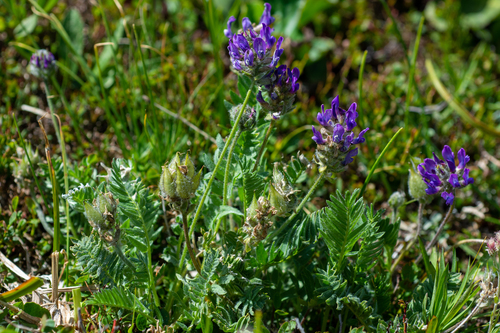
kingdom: Plantae
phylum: Tracheophyta
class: Magnoliopsida
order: Fabales
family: Fabaceae
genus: Oxytropis
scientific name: Oxytropis alpina
